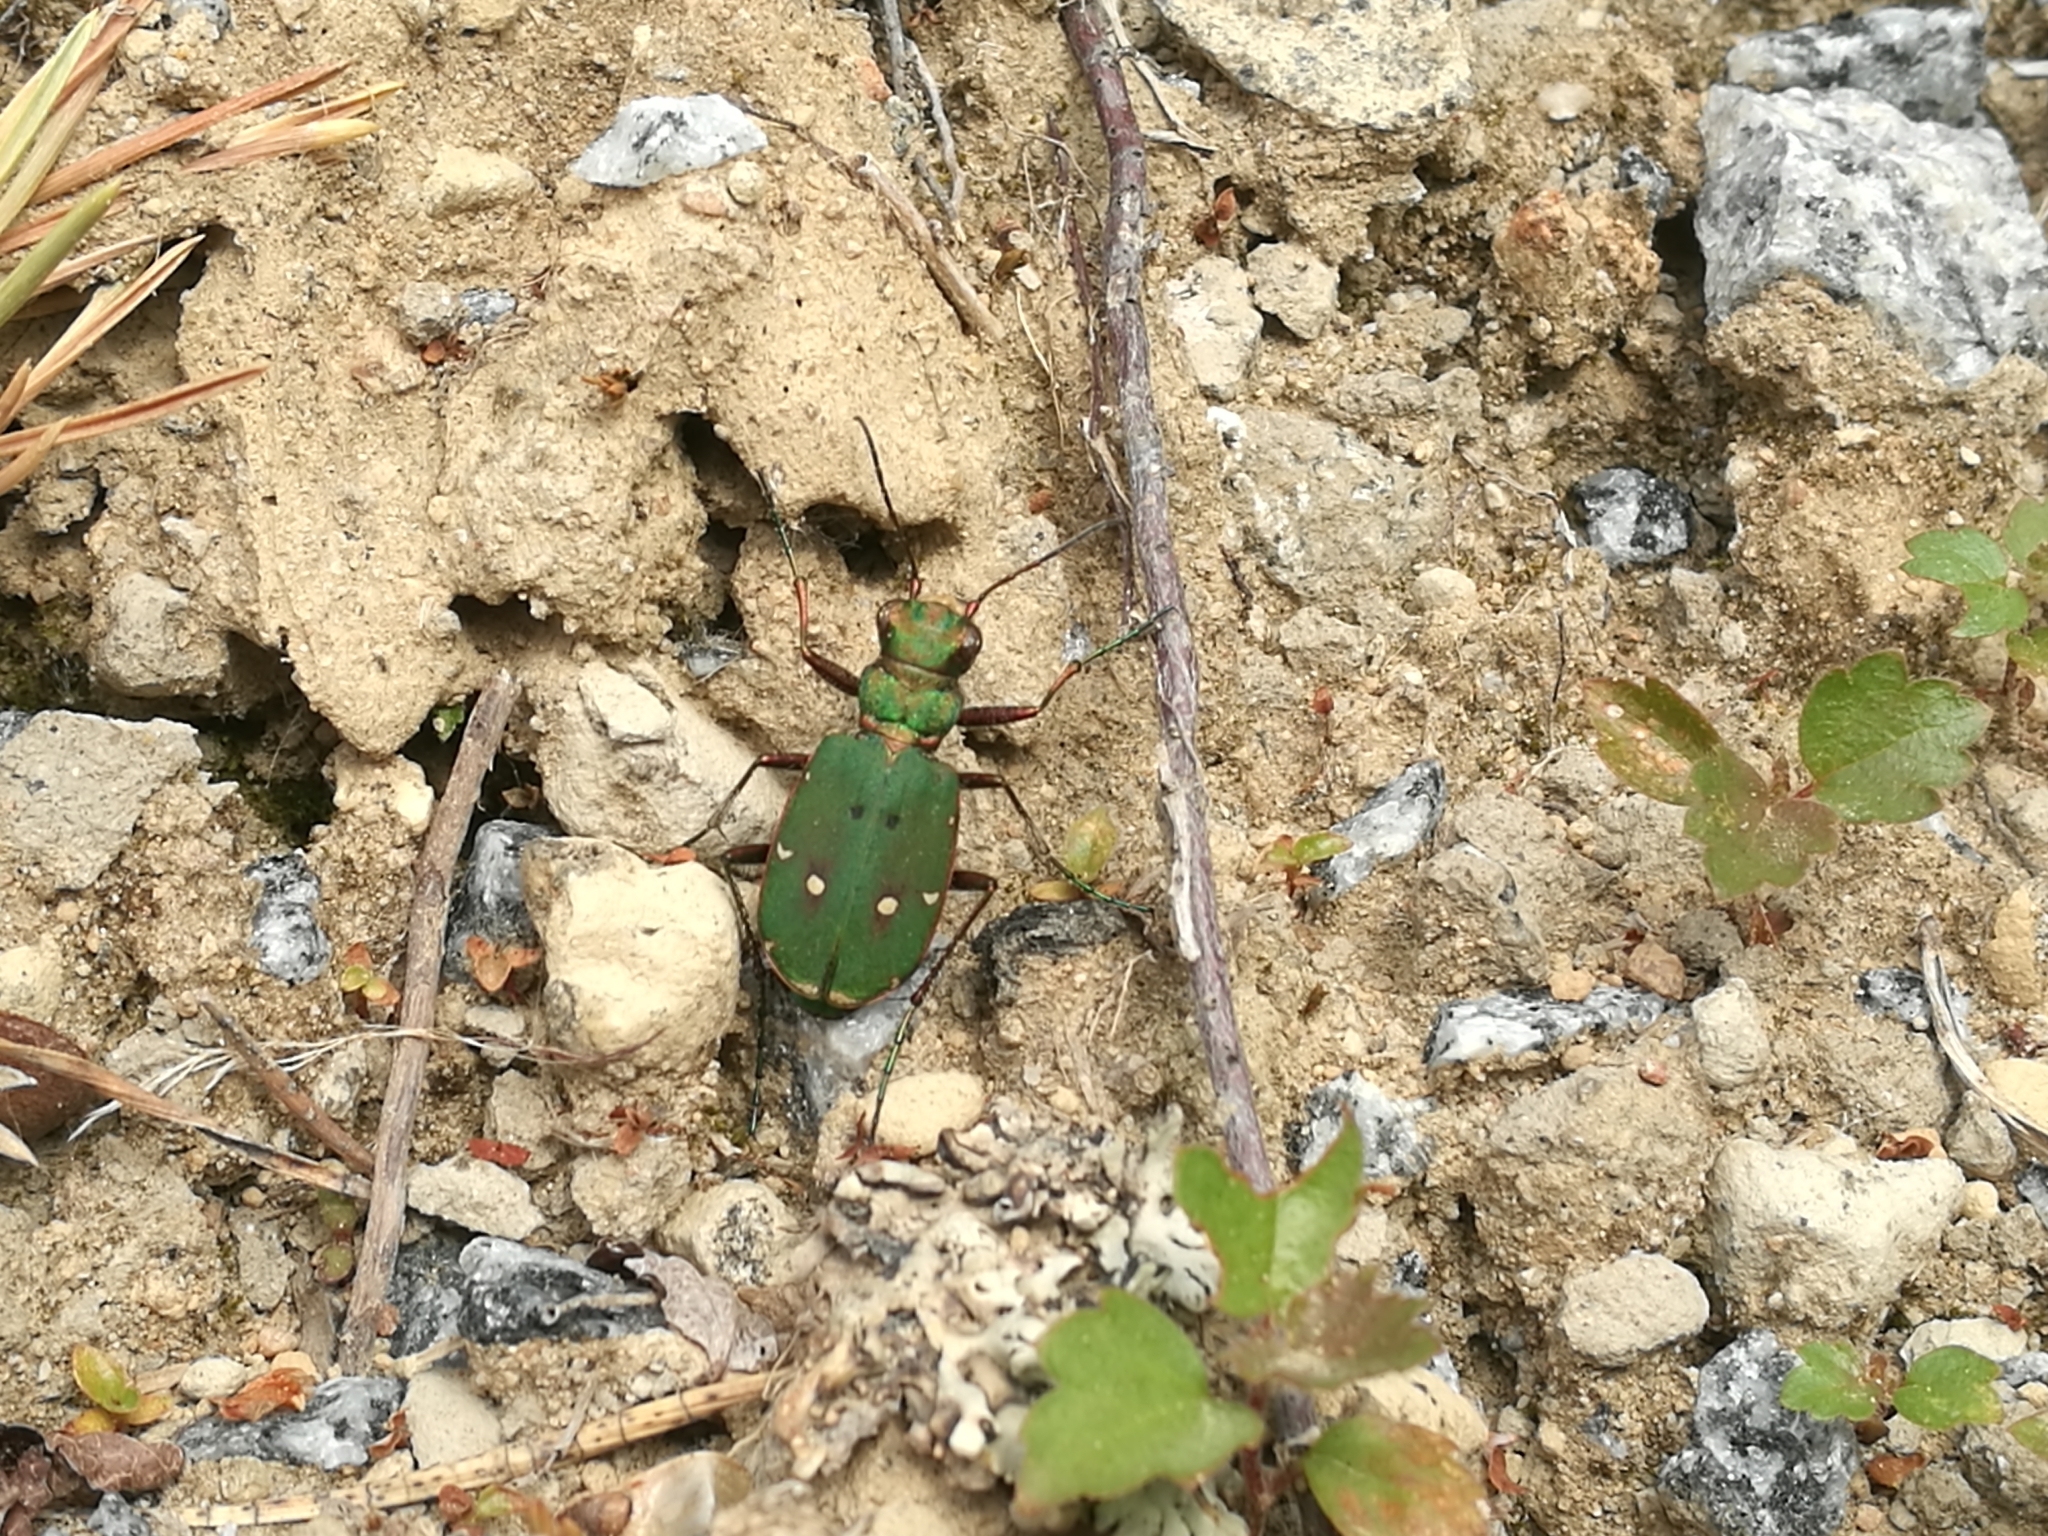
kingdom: Animalia
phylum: Arthropoda
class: Insecta
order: Coleoptera
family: Carabidae
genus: Cicindela
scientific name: Cicindela campestris
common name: Common tiger beetle
